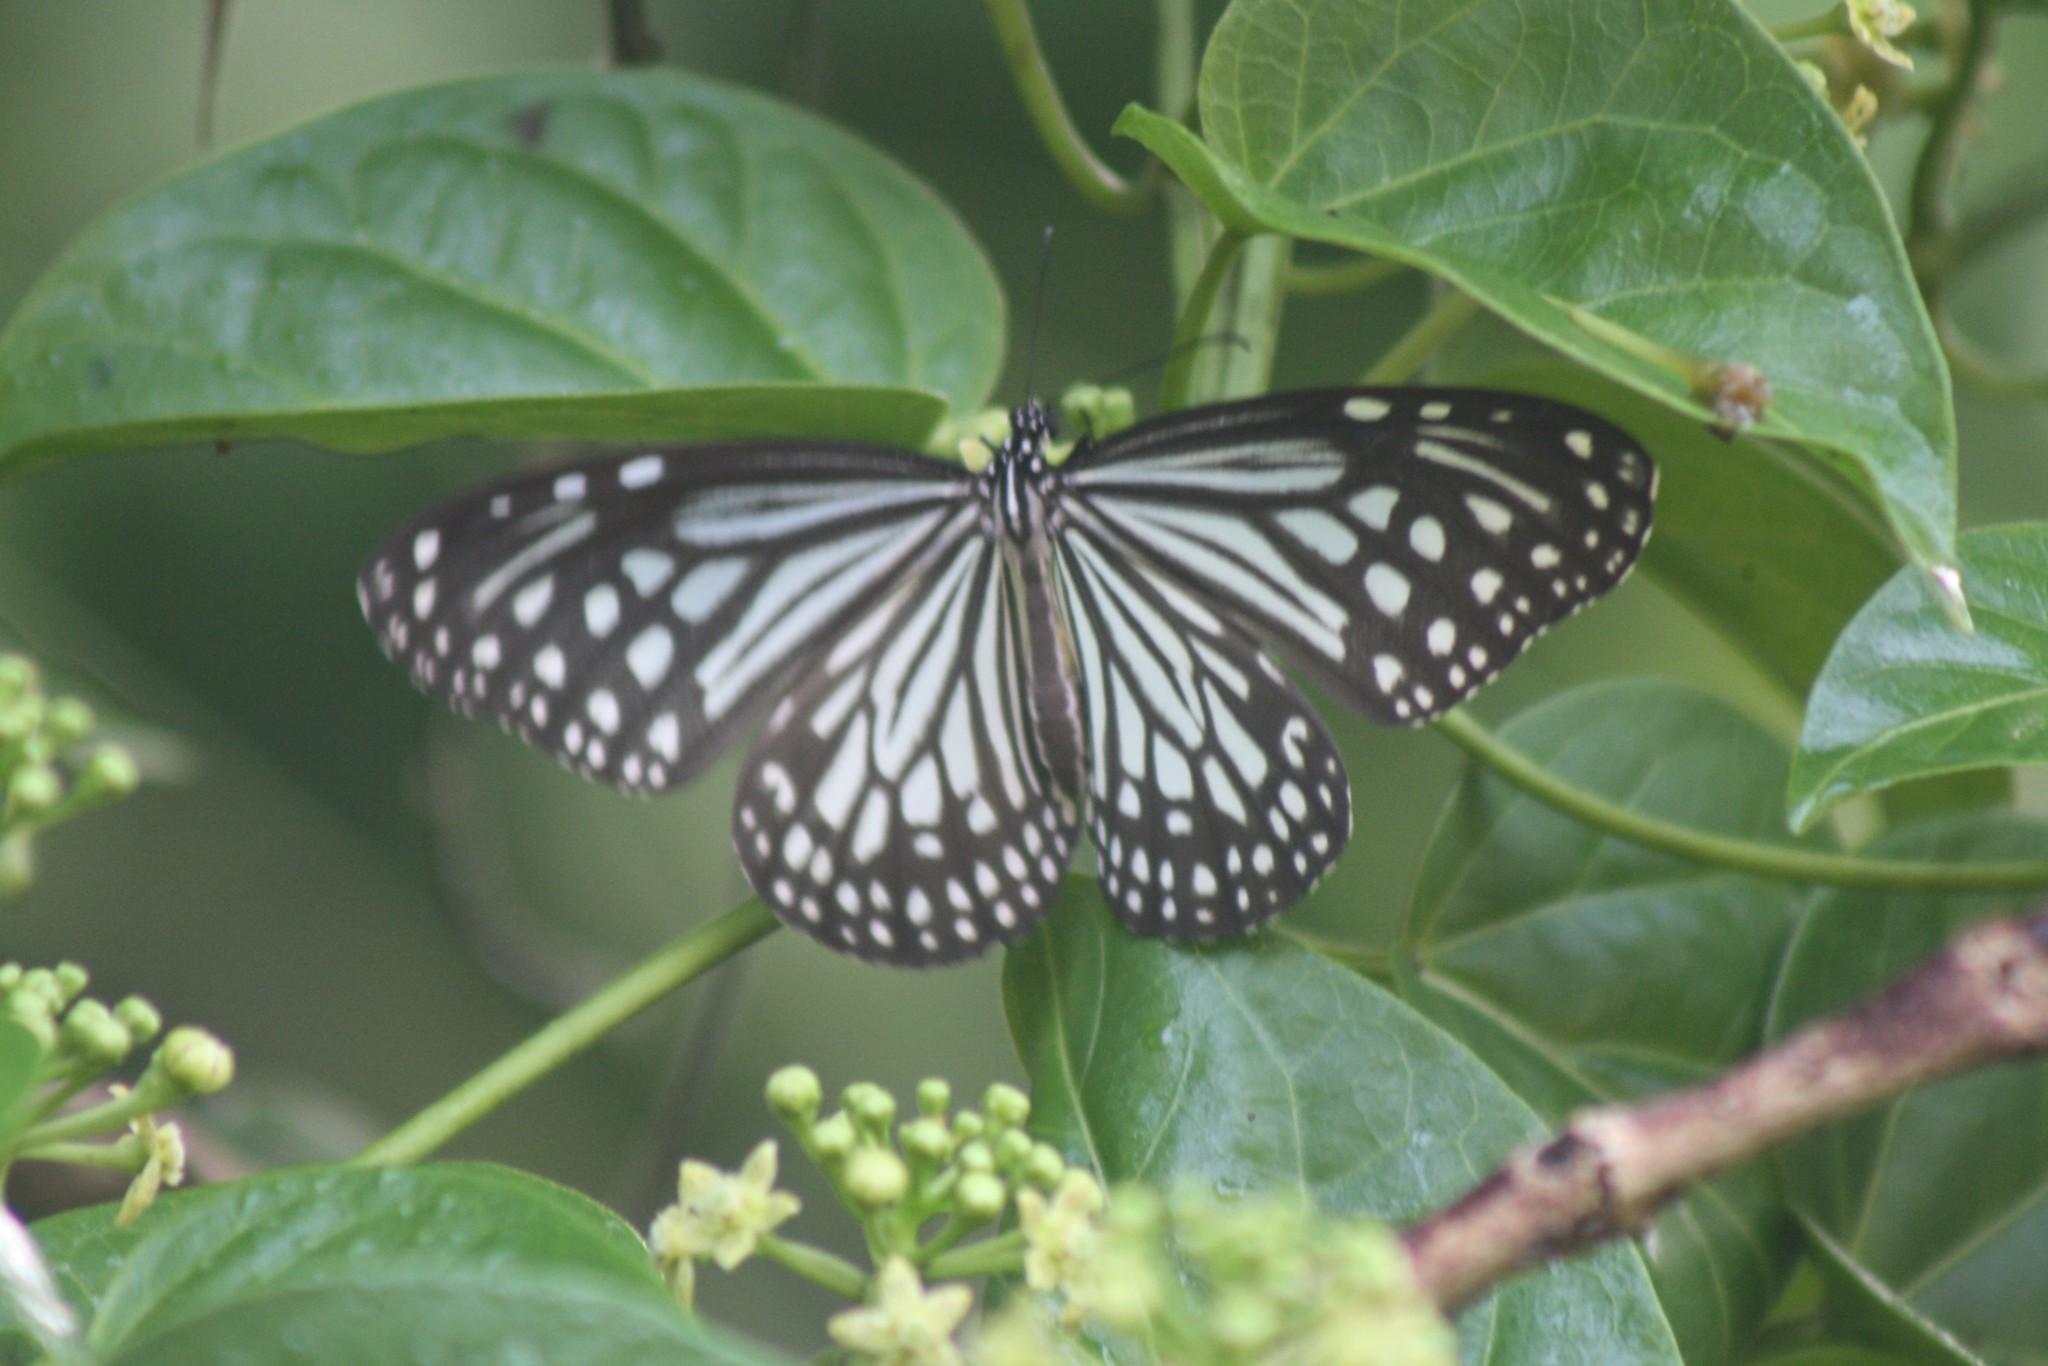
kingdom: Animalia
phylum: Arthropoda
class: Insecta
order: Lepidoptera
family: Nymphalidae
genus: Parantica
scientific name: Parantica aglea
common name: Glassy tiger
